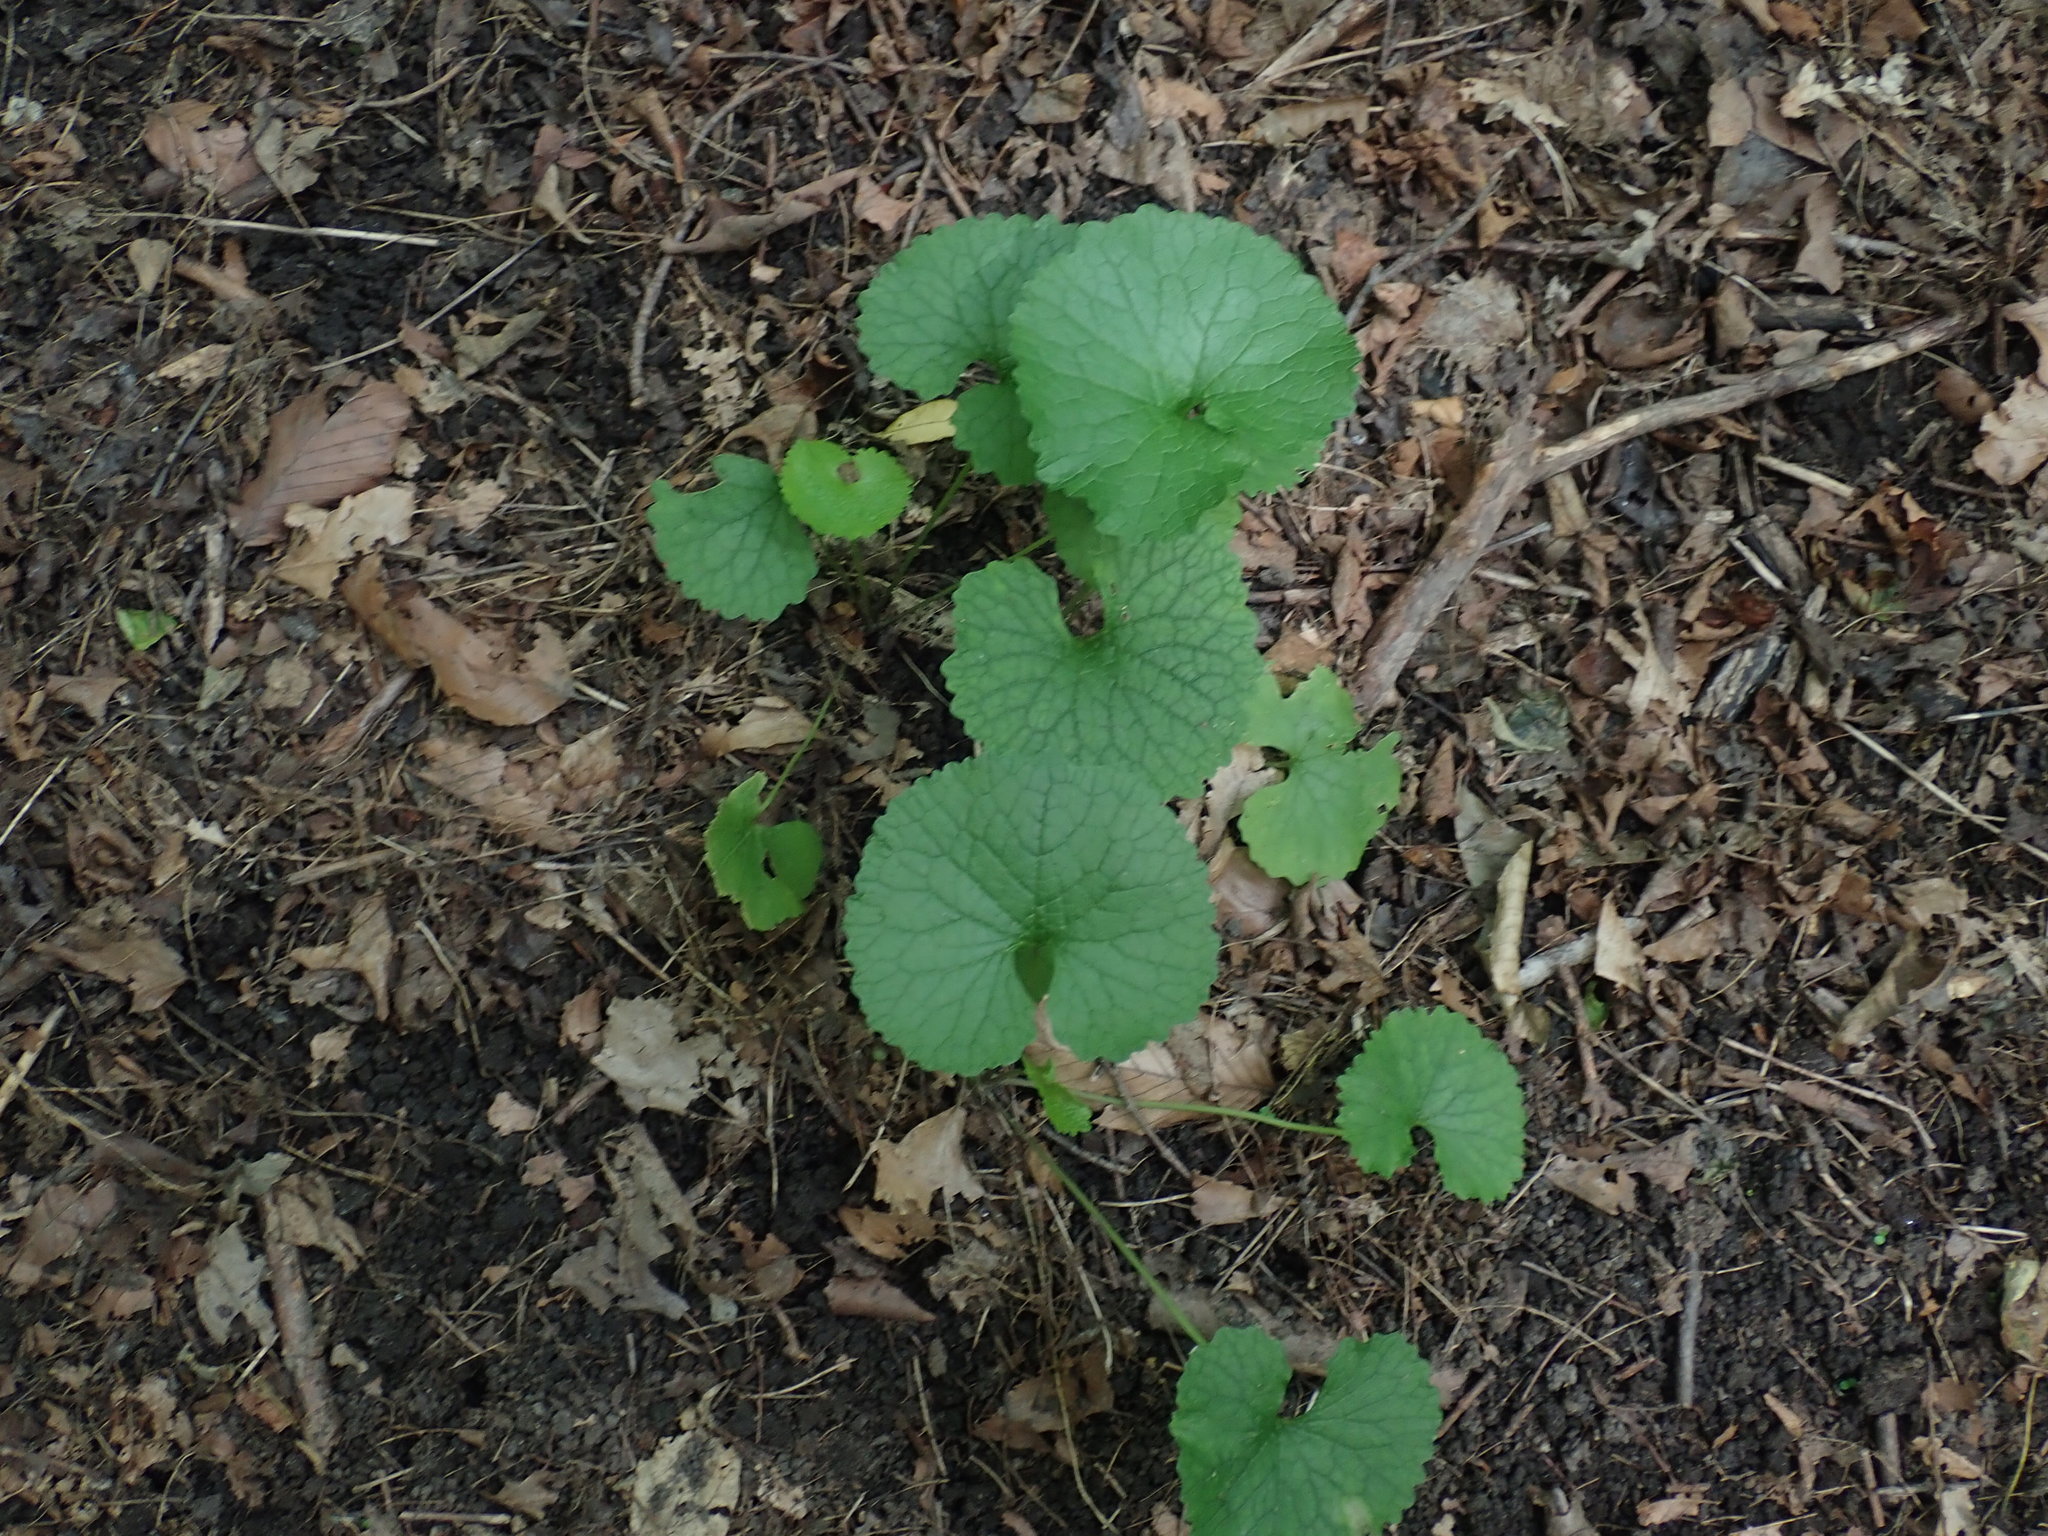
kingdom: Plantae
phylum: Tracheophyta
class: Magnoliopsida
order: Brassicales
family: Brassicaceae
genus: Alliaria
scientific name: Alliaria petiolata
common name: Garlic mustard
